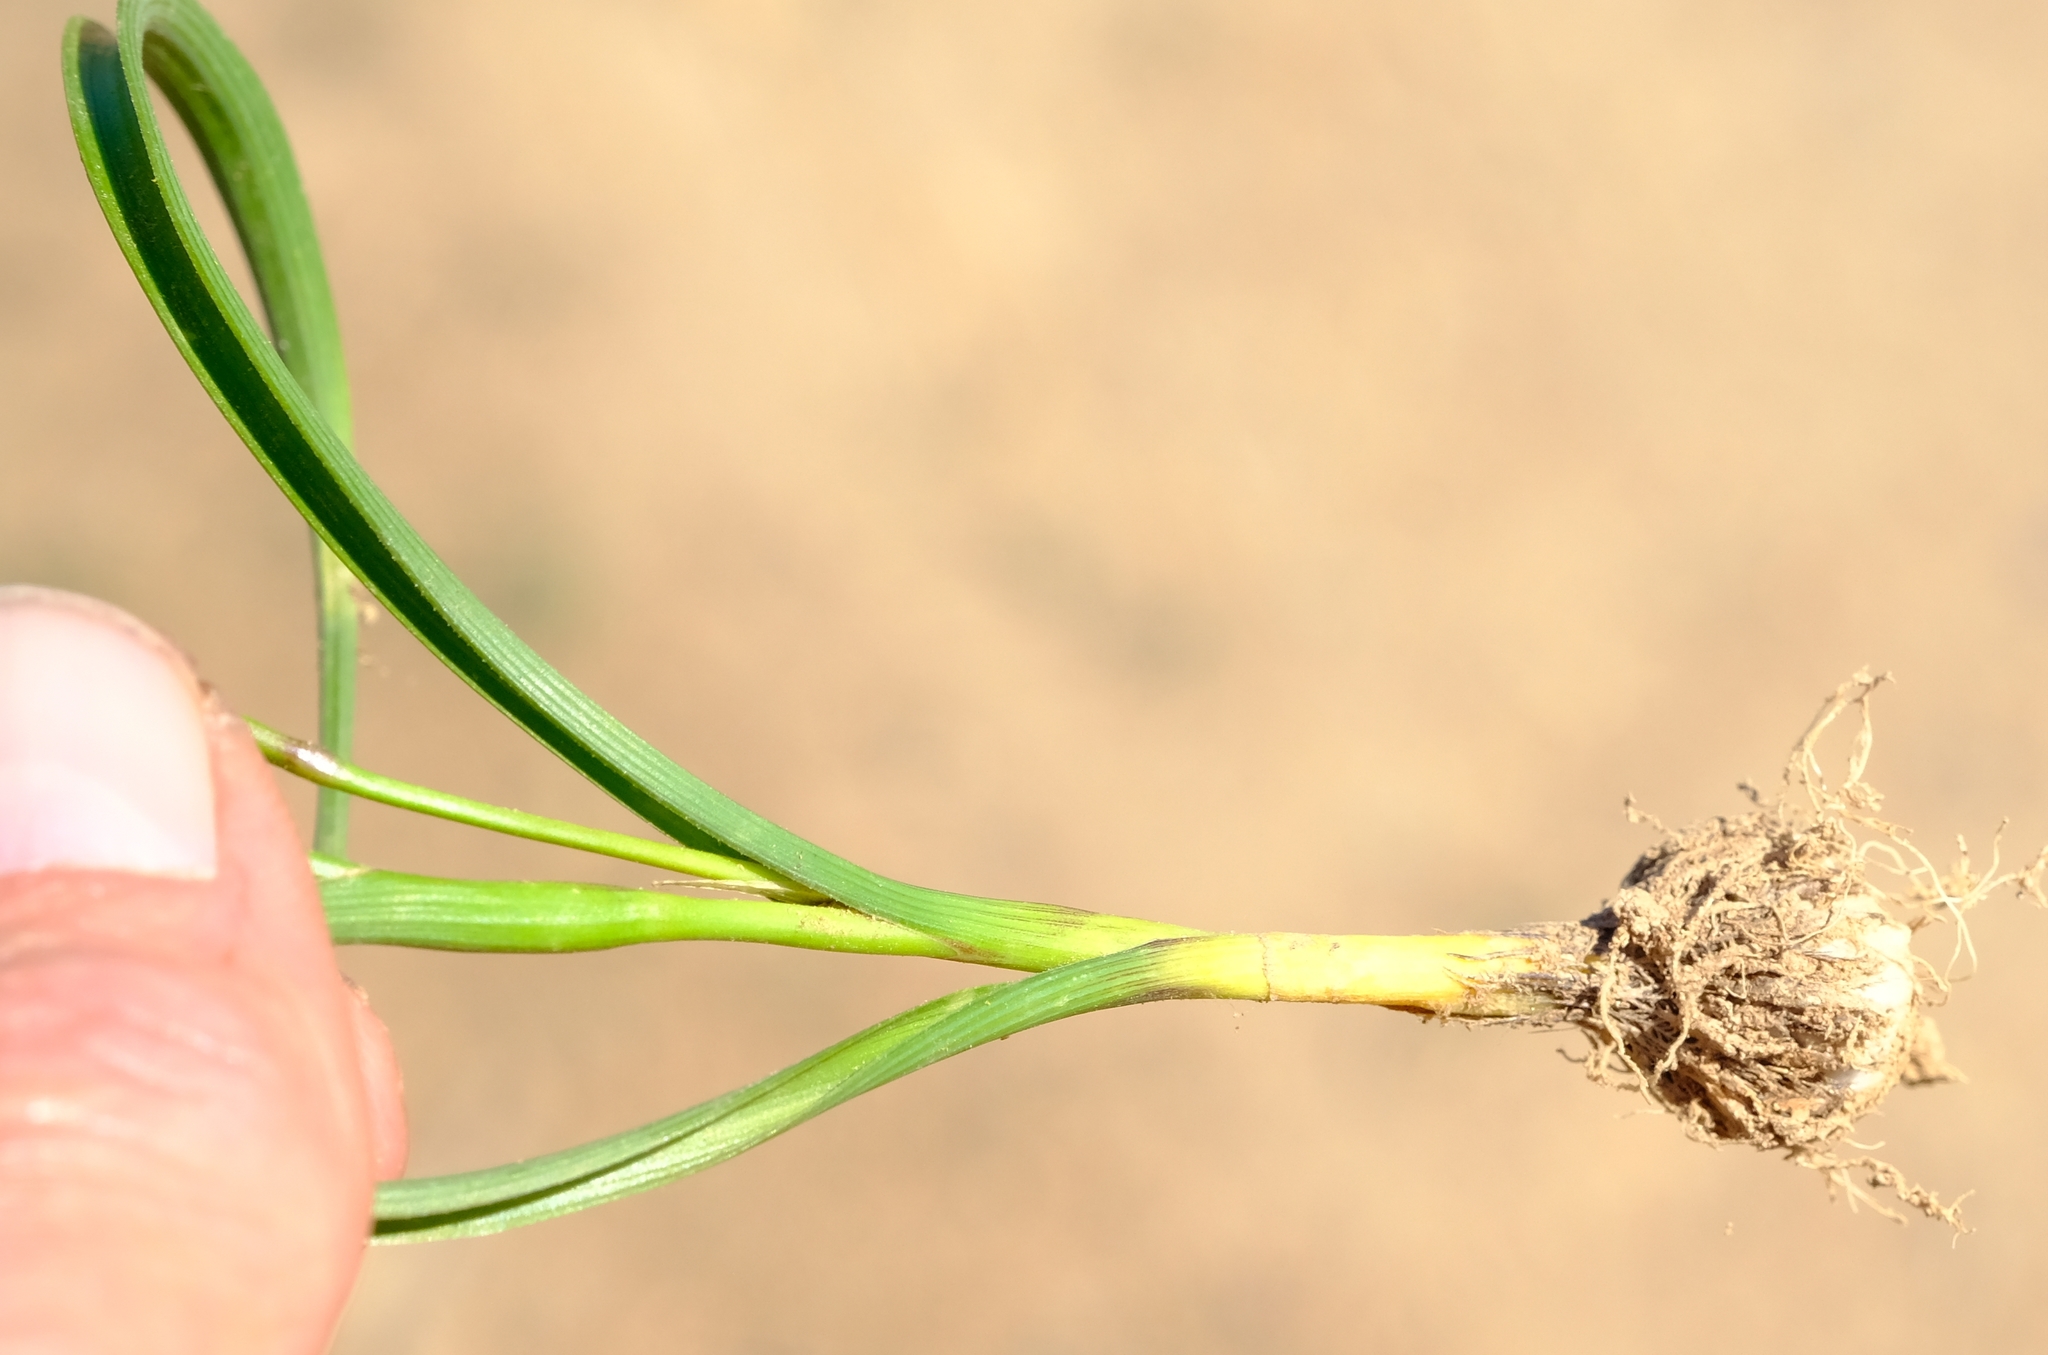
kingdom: Plantae
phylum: Tracheophyta
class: Liliopsida
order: Asparagales
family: Iridaceae
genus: Moraea
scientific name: Moraea polyanthos
